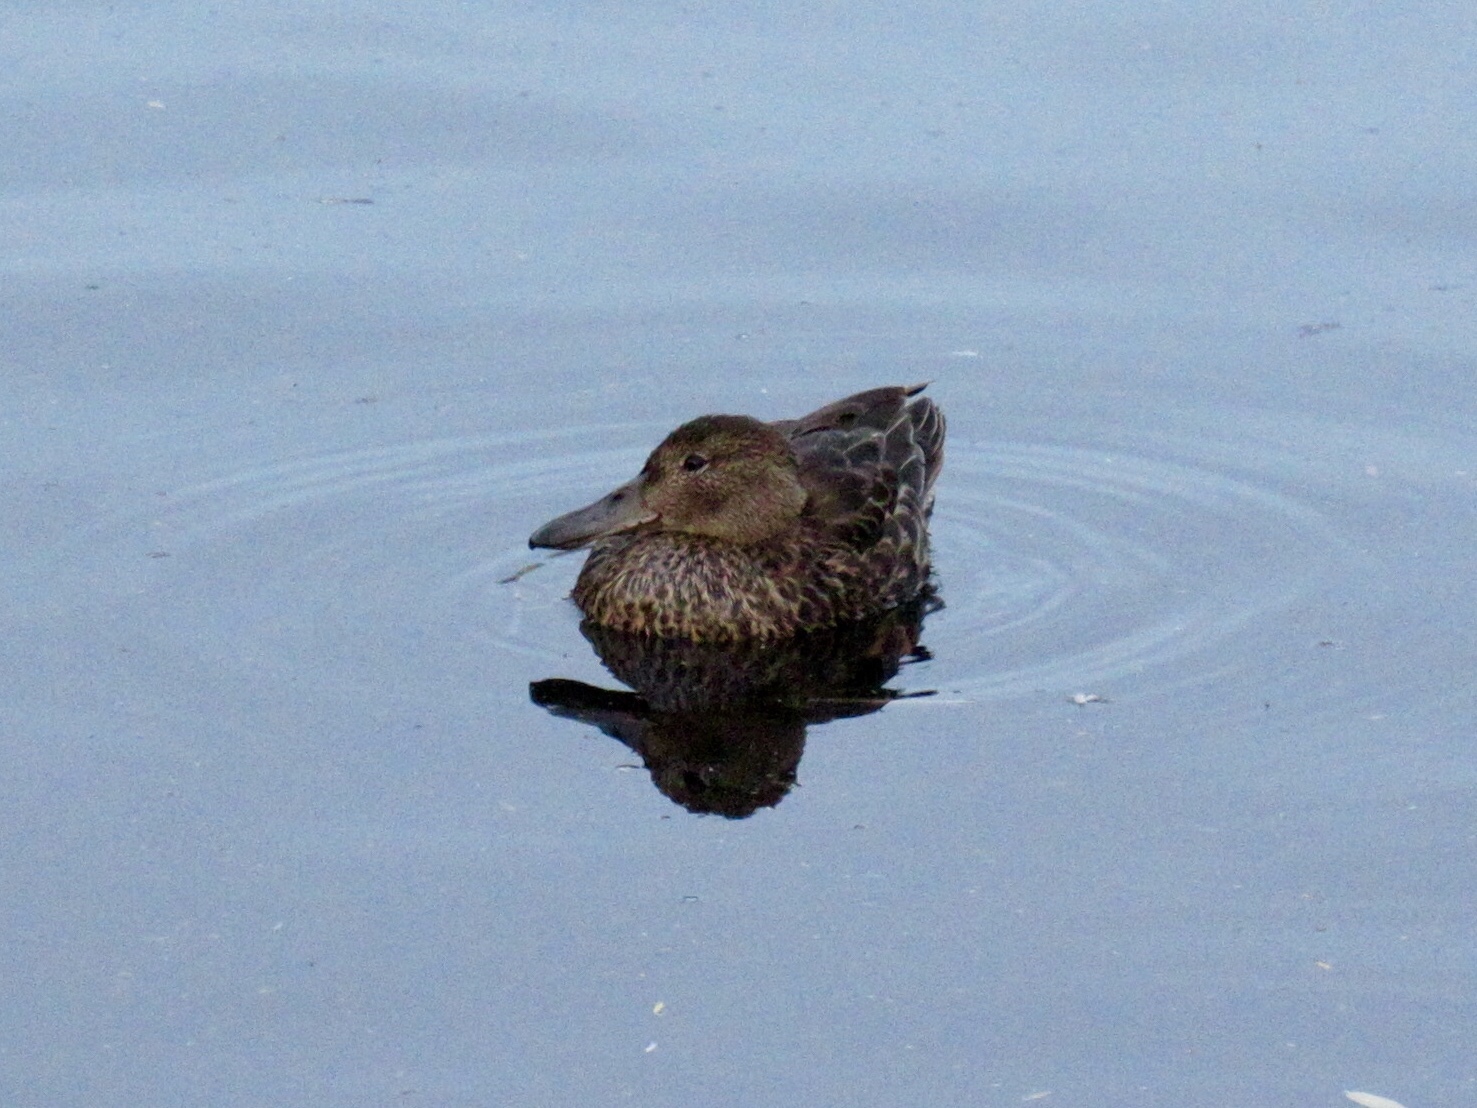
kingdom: Animalia
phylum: Chordata
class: Aves
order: Anseriformes
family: Anatidae
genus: Spatula
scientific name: Spatula clypeata
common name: Northern shoveler
